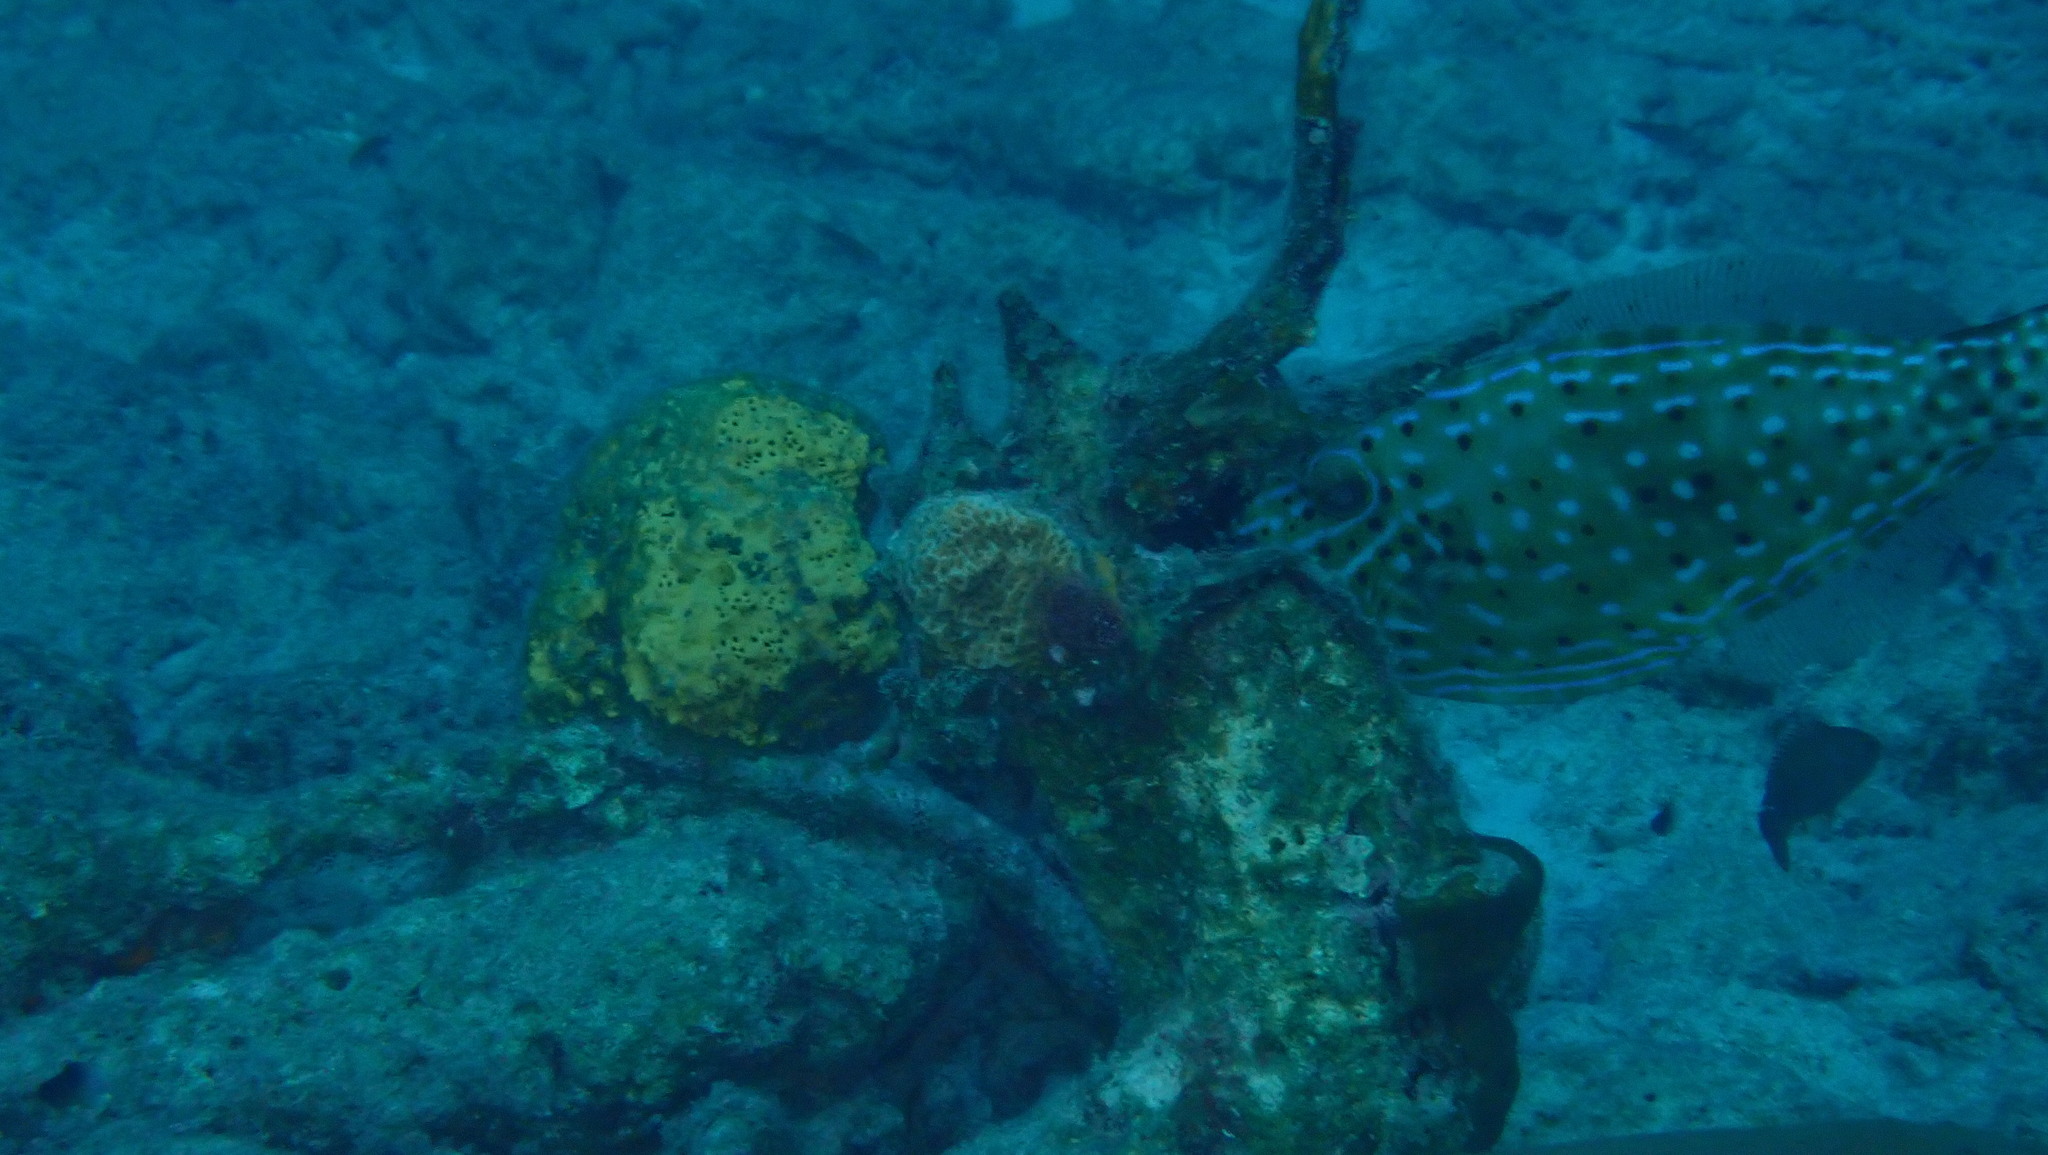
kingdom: Animalia
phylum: Chordata
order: Tetraodontiformes
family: Monacanthidae
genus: Aluterus
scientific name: Aluterus scriptus
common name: Scribbled leatherjacket filefish
